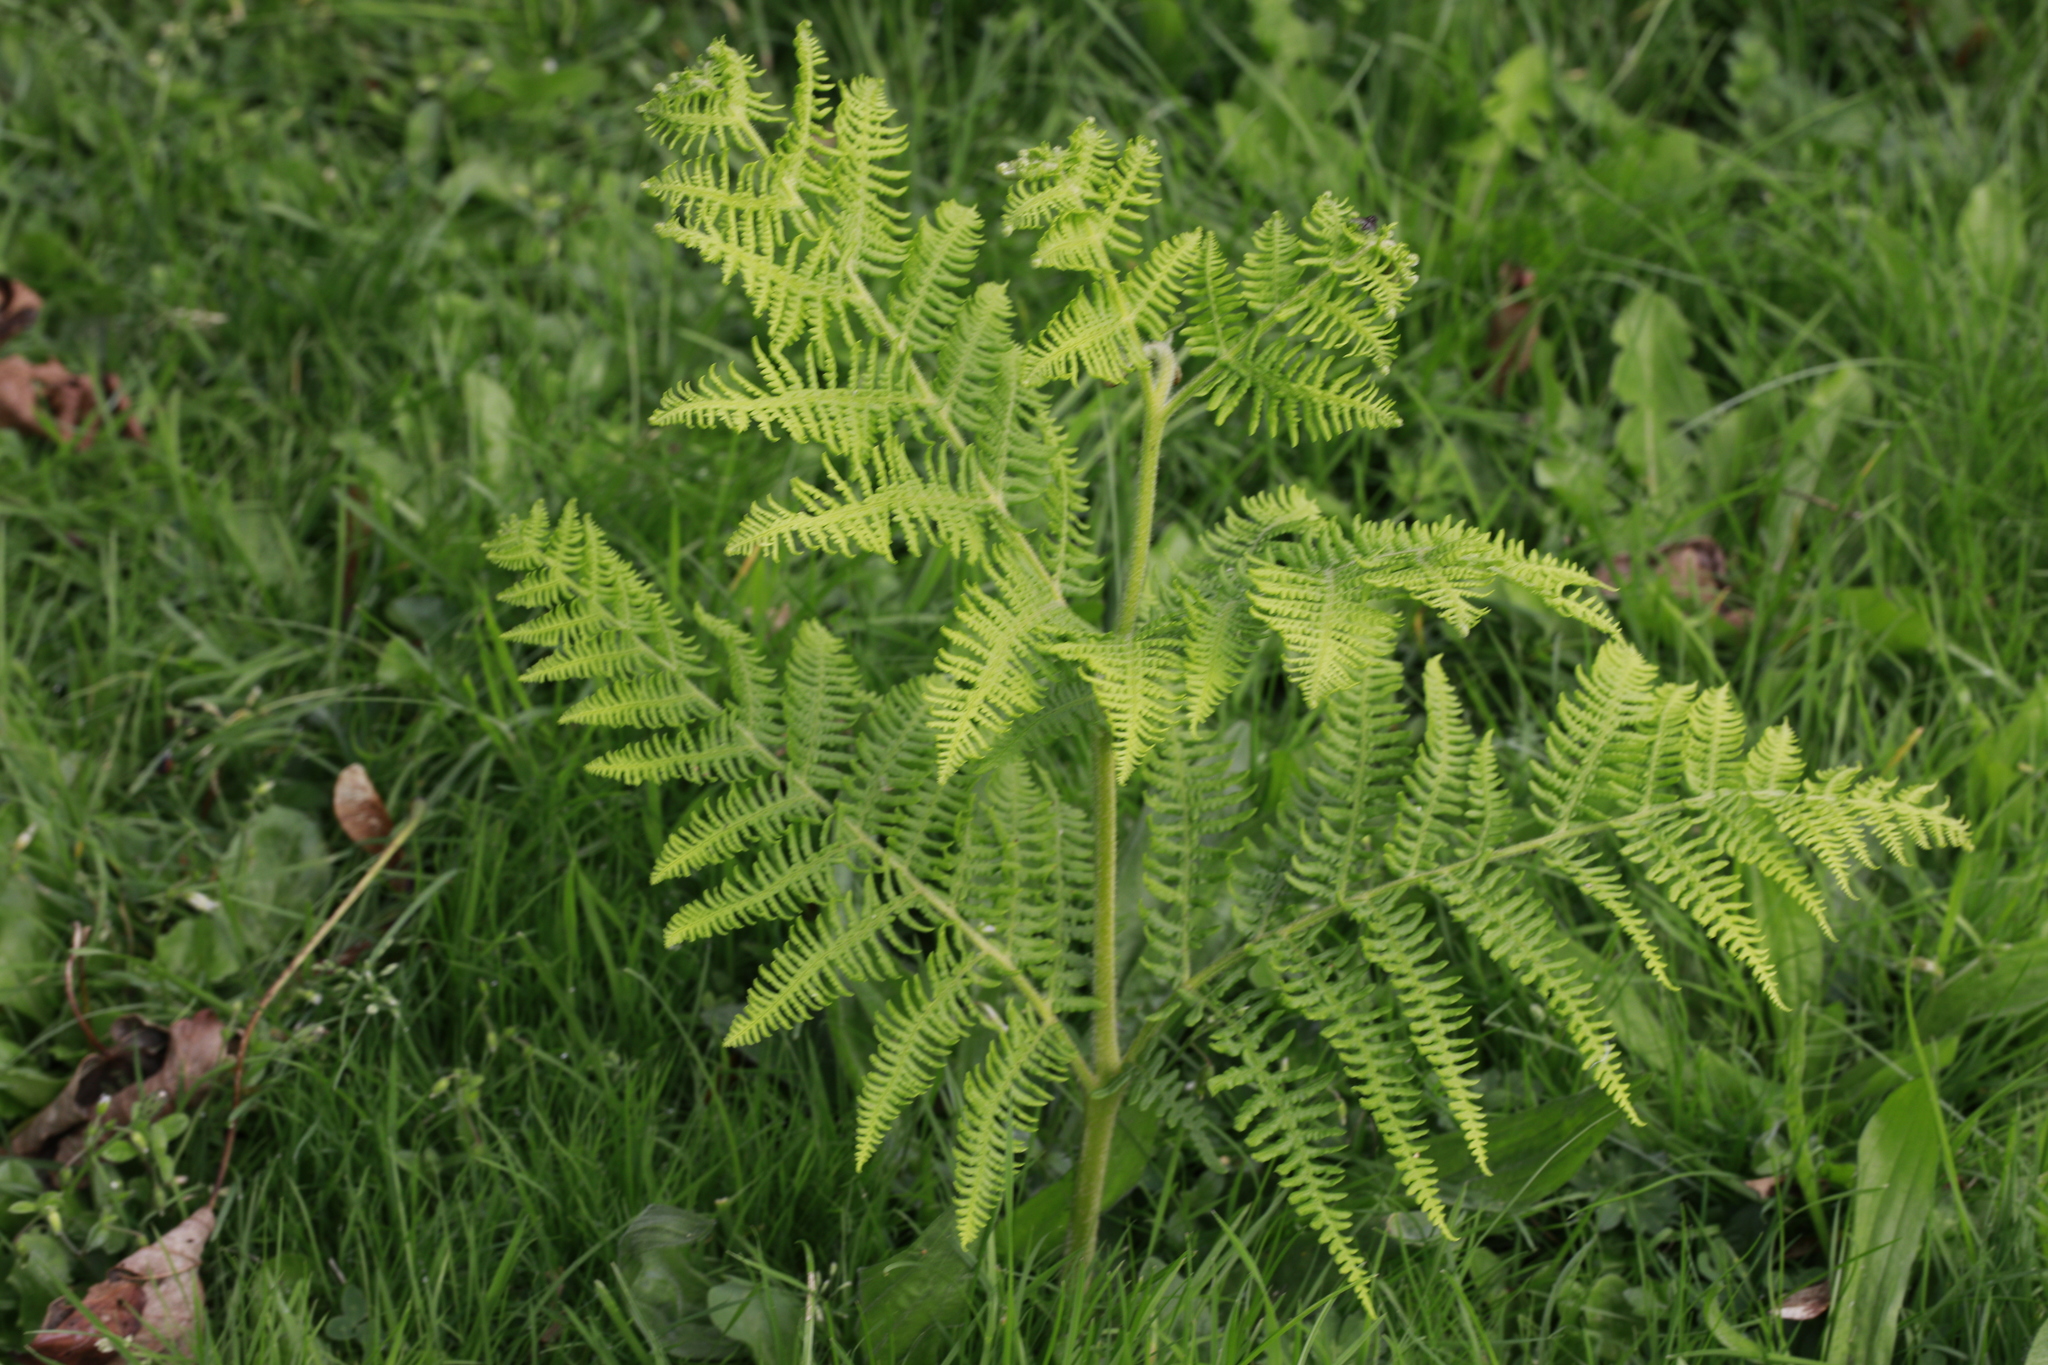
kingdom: Plantae
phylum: Tracheophyta
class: Polypodiopsida
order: Polypodiales
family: Dennstaedtiaceae
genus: Pteridium
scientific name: Pteridium aquilinum
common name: Bracken
